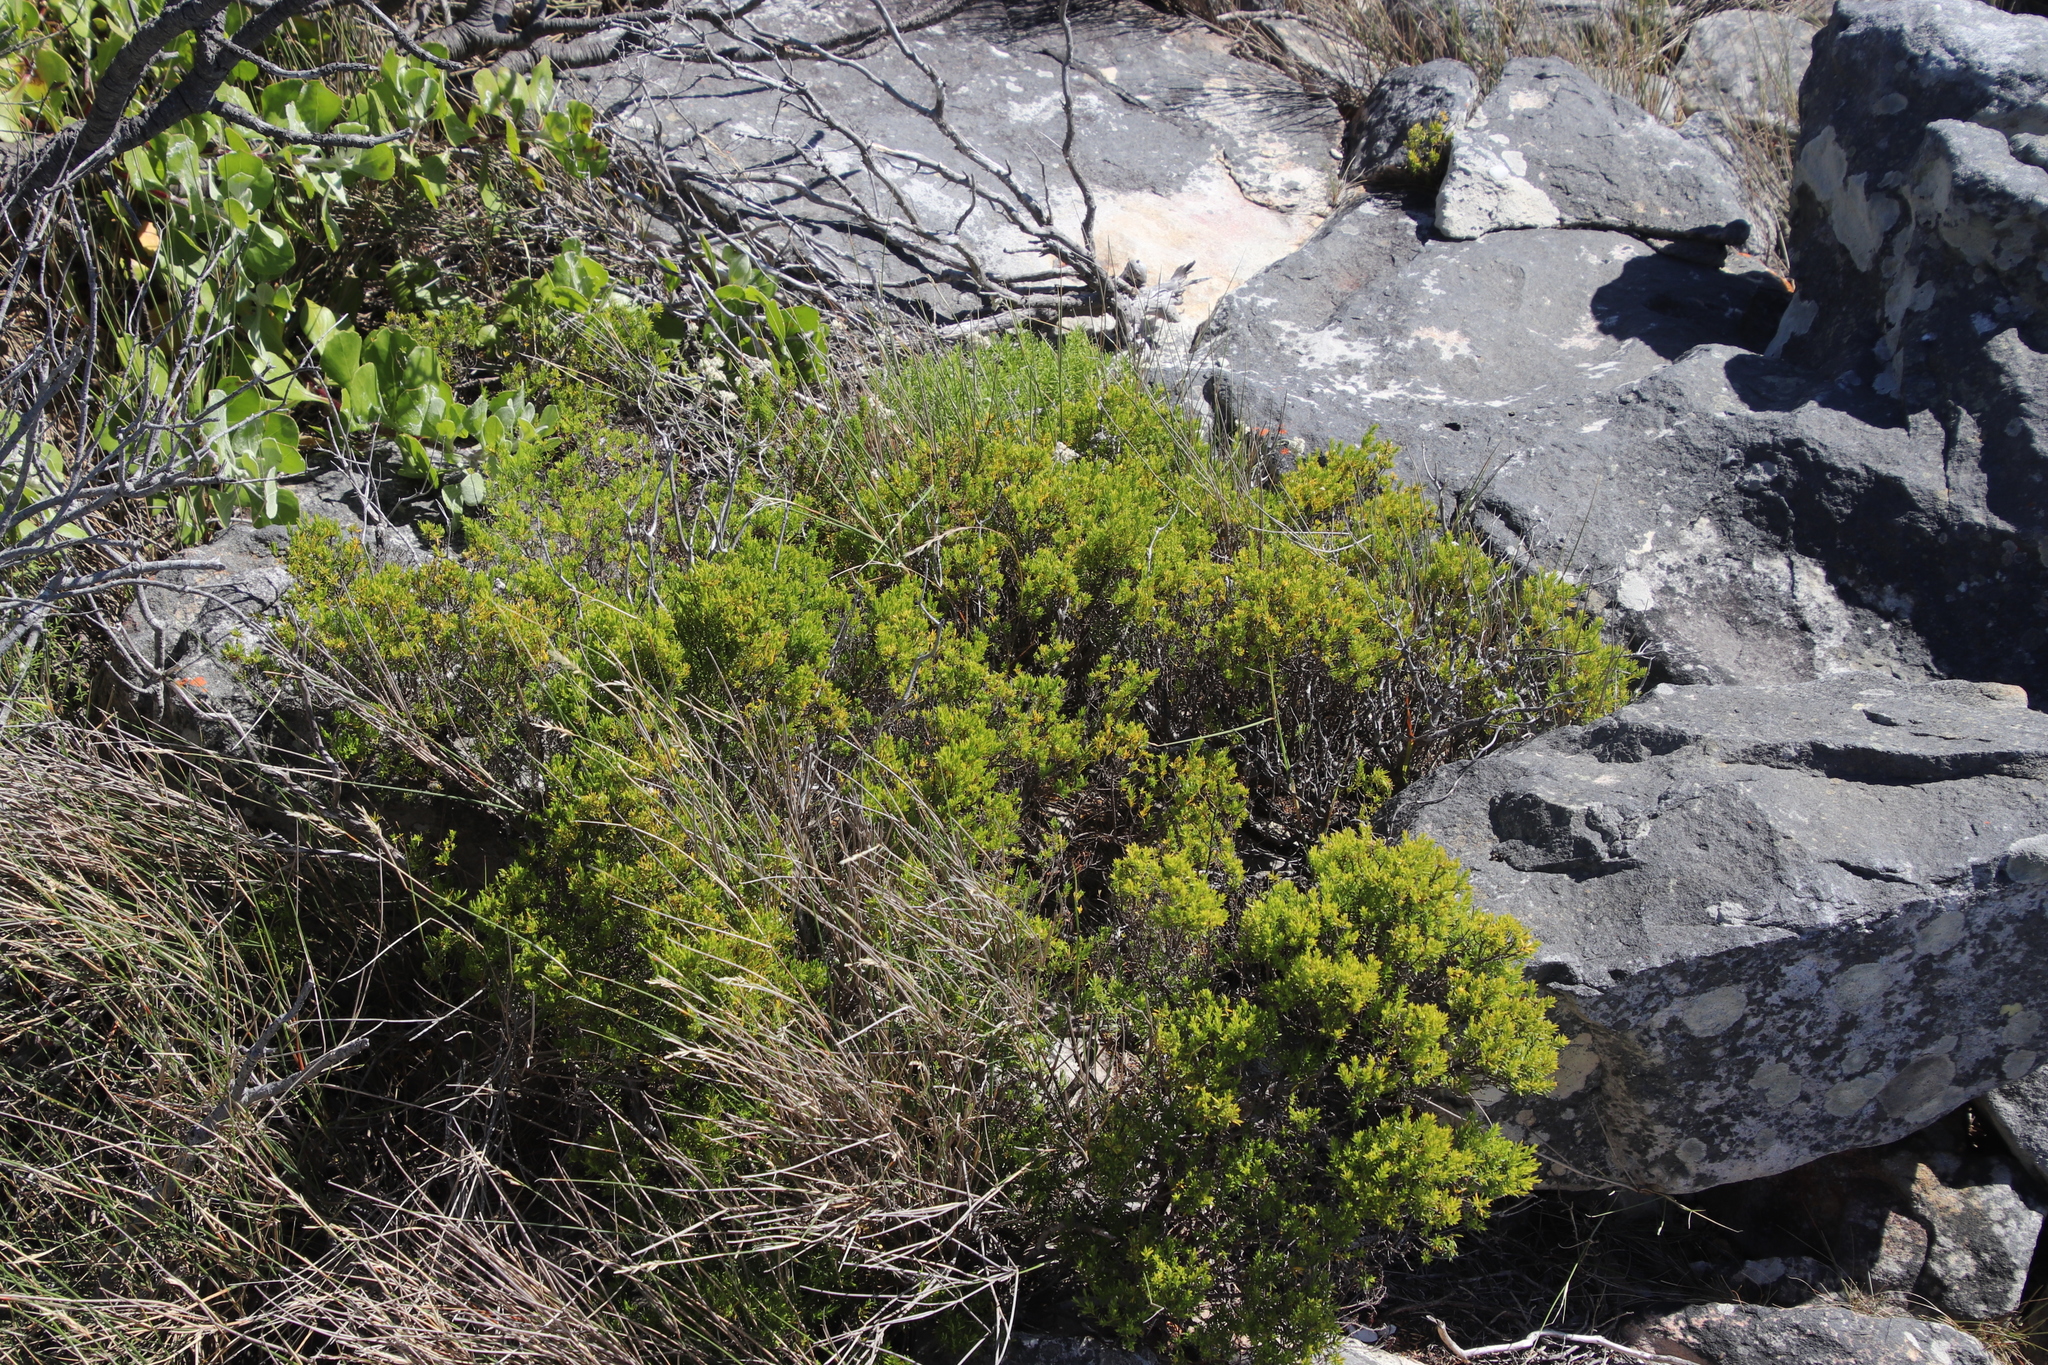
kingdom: Plantae
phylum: Tracheophyta
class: Magnoliopsida
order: Sapindales
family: Rutaceae
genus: Coleonema
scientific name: Coleonema album
